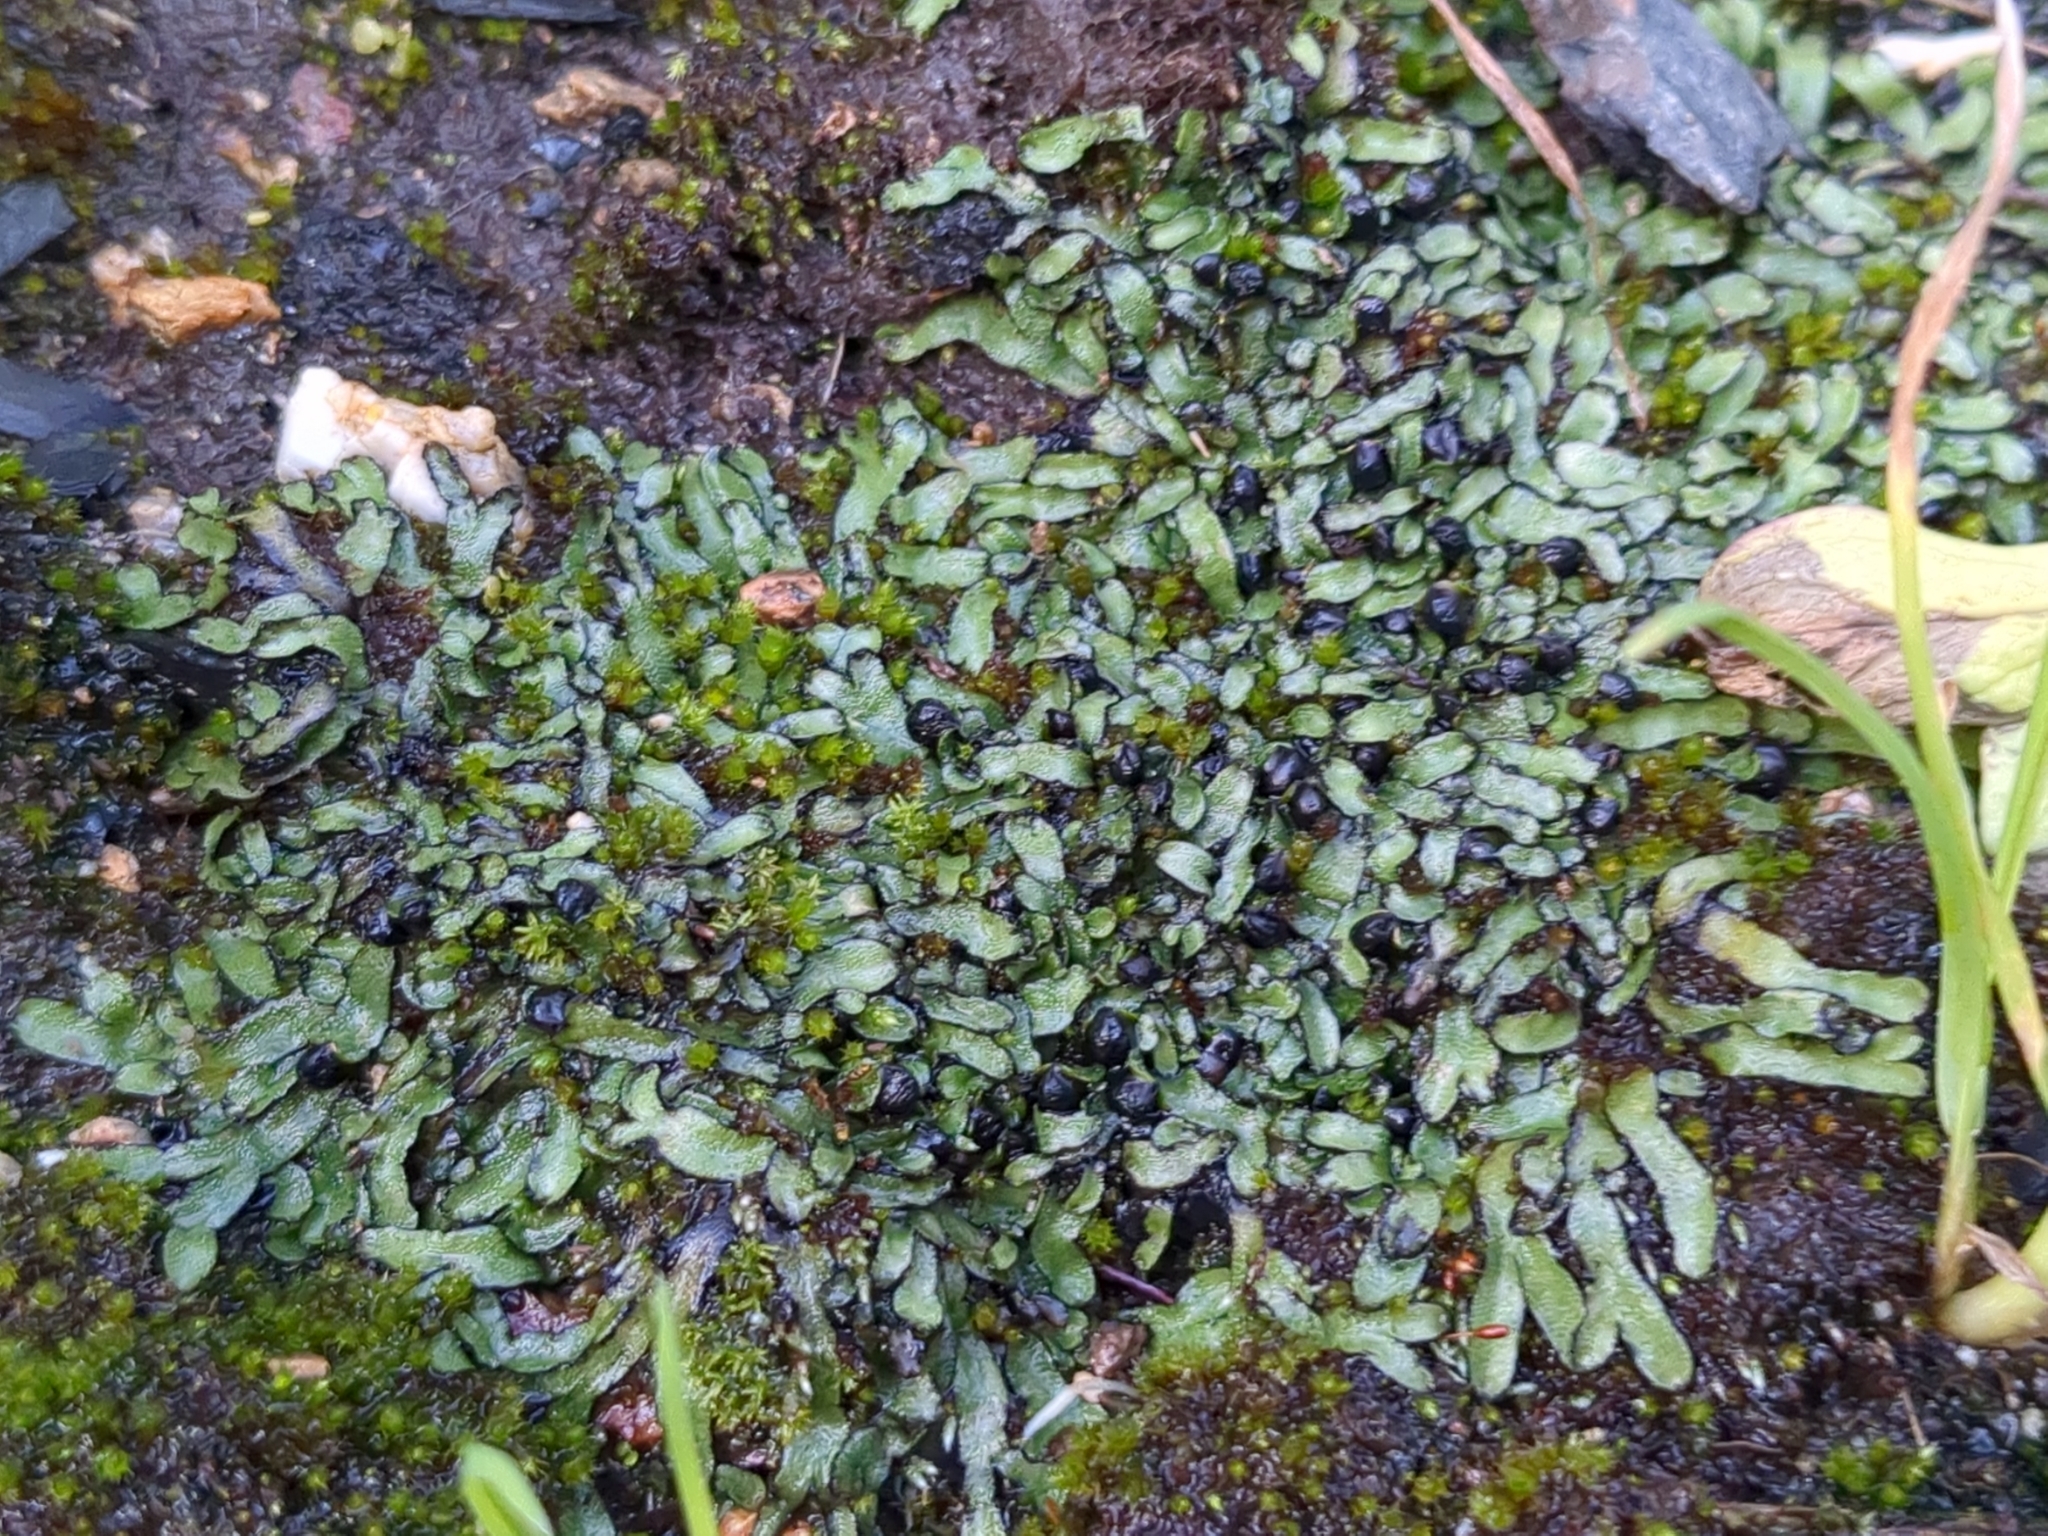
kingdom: Plantae
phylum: Marchantiophyta
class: Marchantiopsida
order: Marchantiales
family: Targioniaceae
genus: Targionia
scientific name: Targionia hypophylla
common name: Orobus-seed liverwort
